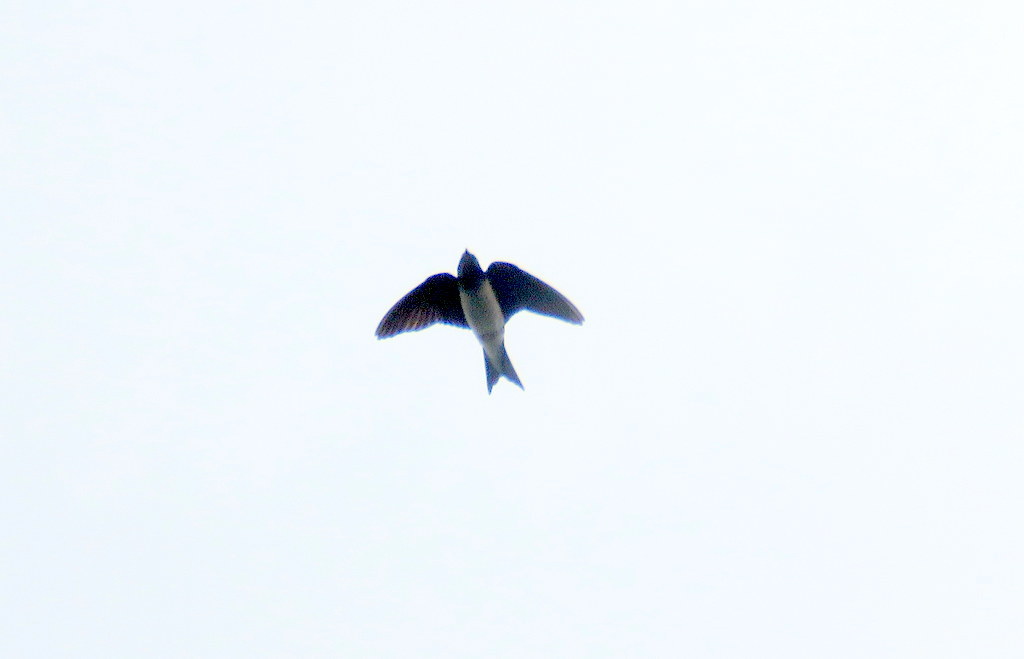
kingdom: Animalia
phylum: Chordata
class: Aves
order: Passeriformes
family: Hirundinidae
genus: Progne
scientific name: Progne chalybea
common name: Grey-breasted martin
